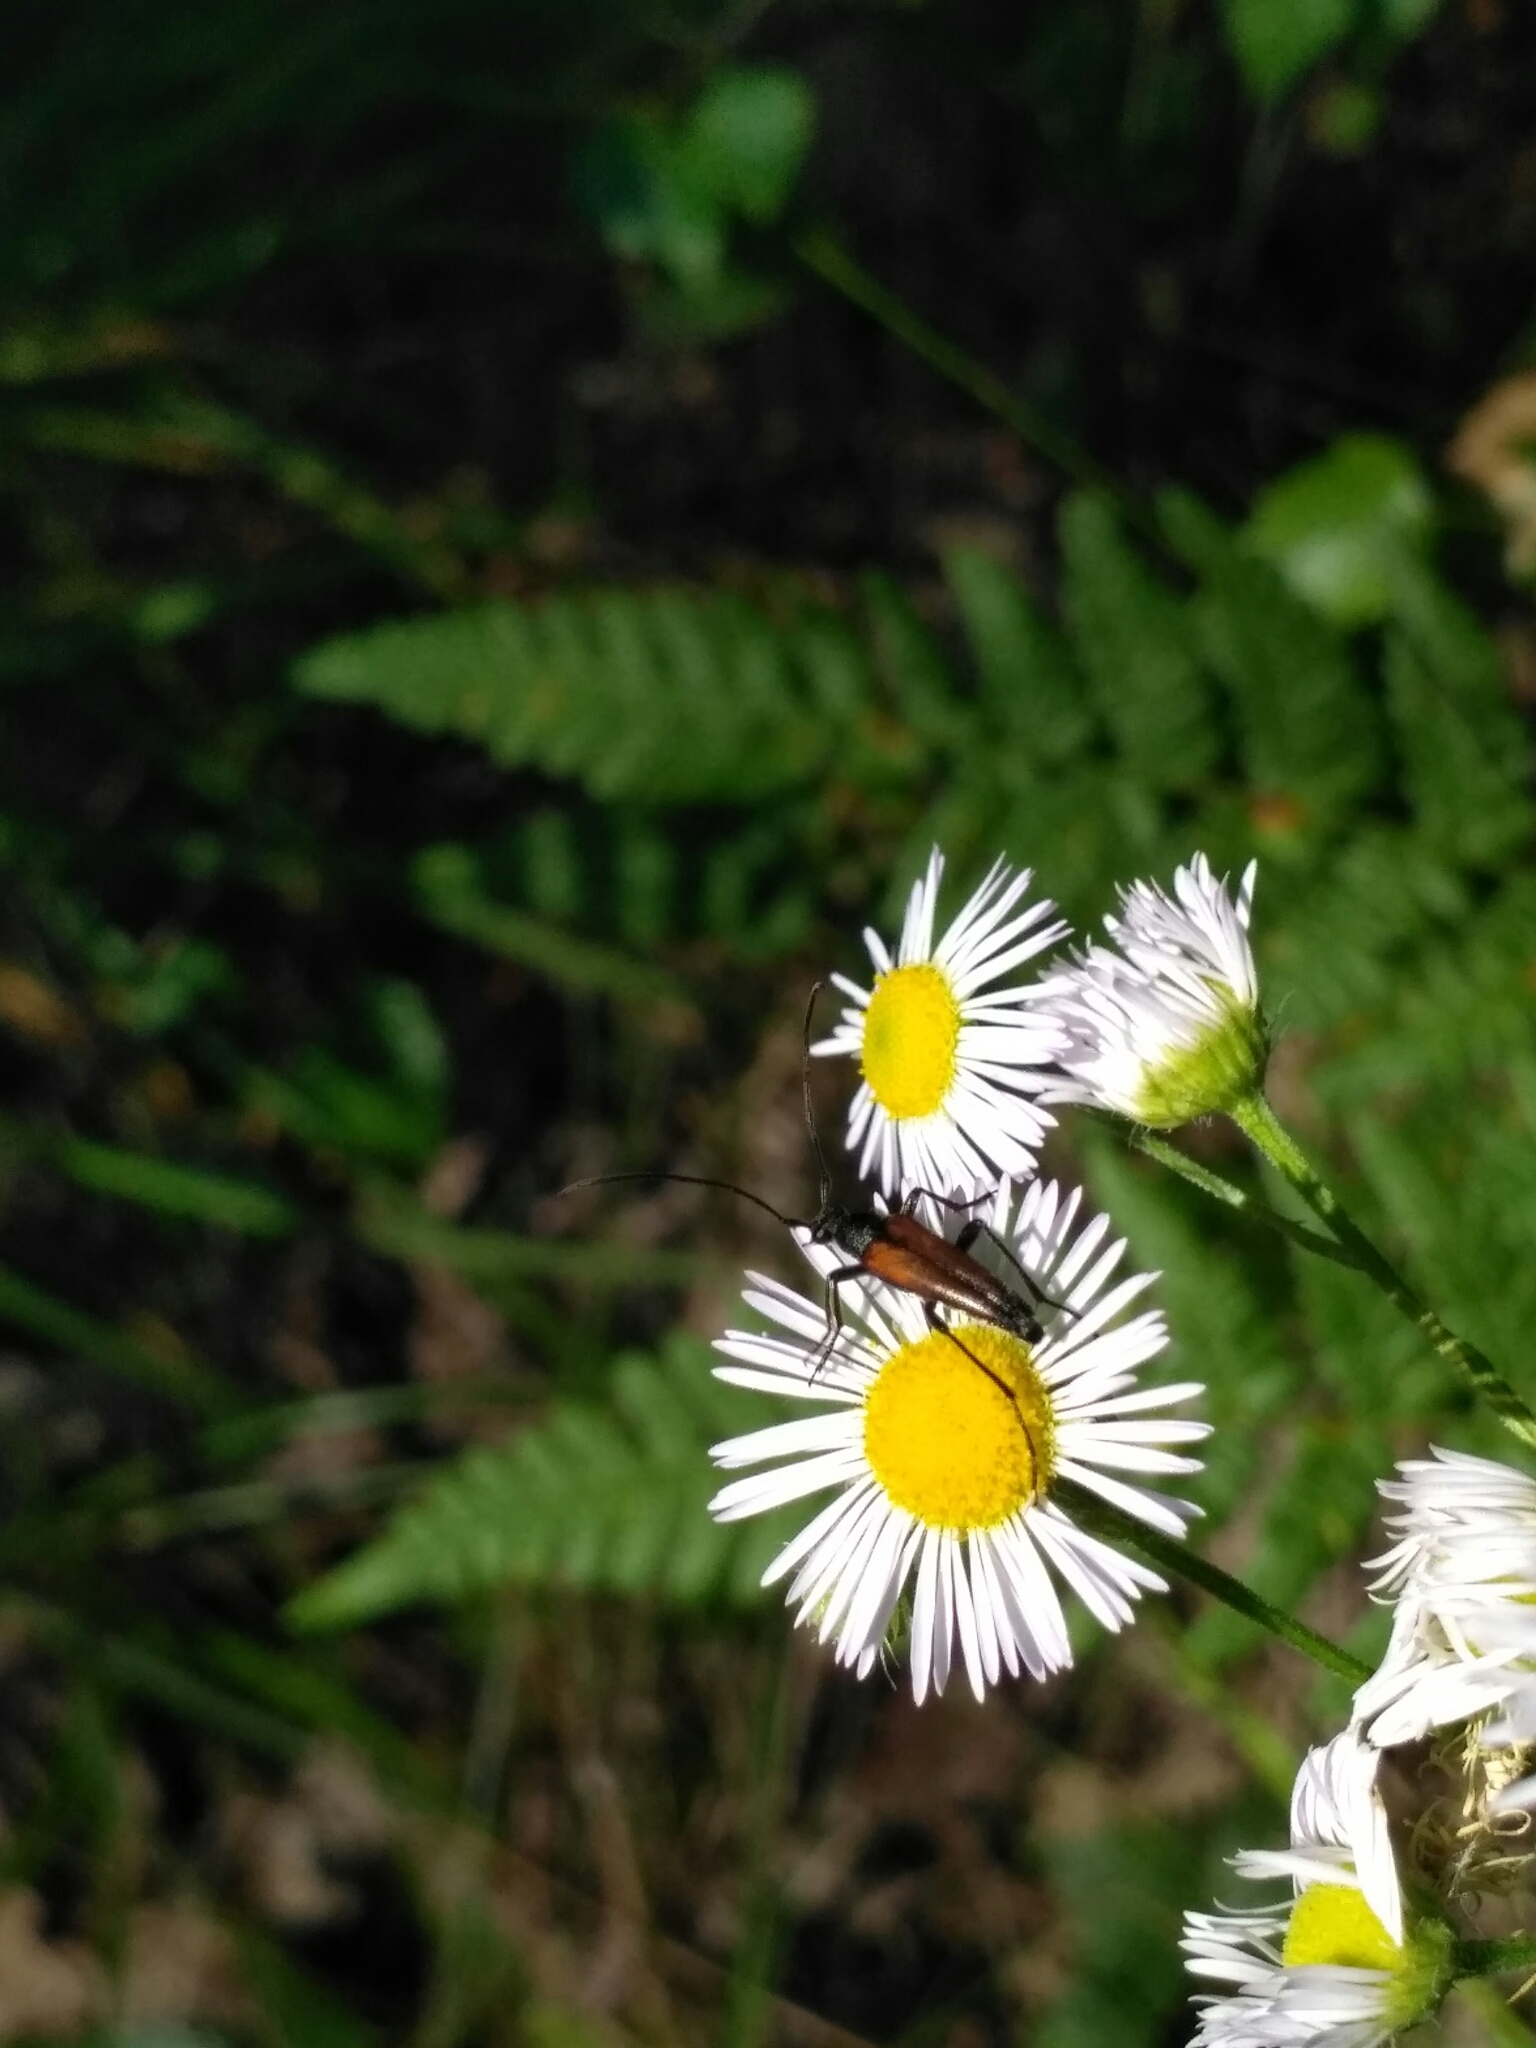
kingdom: Animalia
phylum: Arthropoda
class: Insecta
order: Coleoptera
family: Cerambycidae
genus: Stenurella
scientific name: Stenurella melanura
